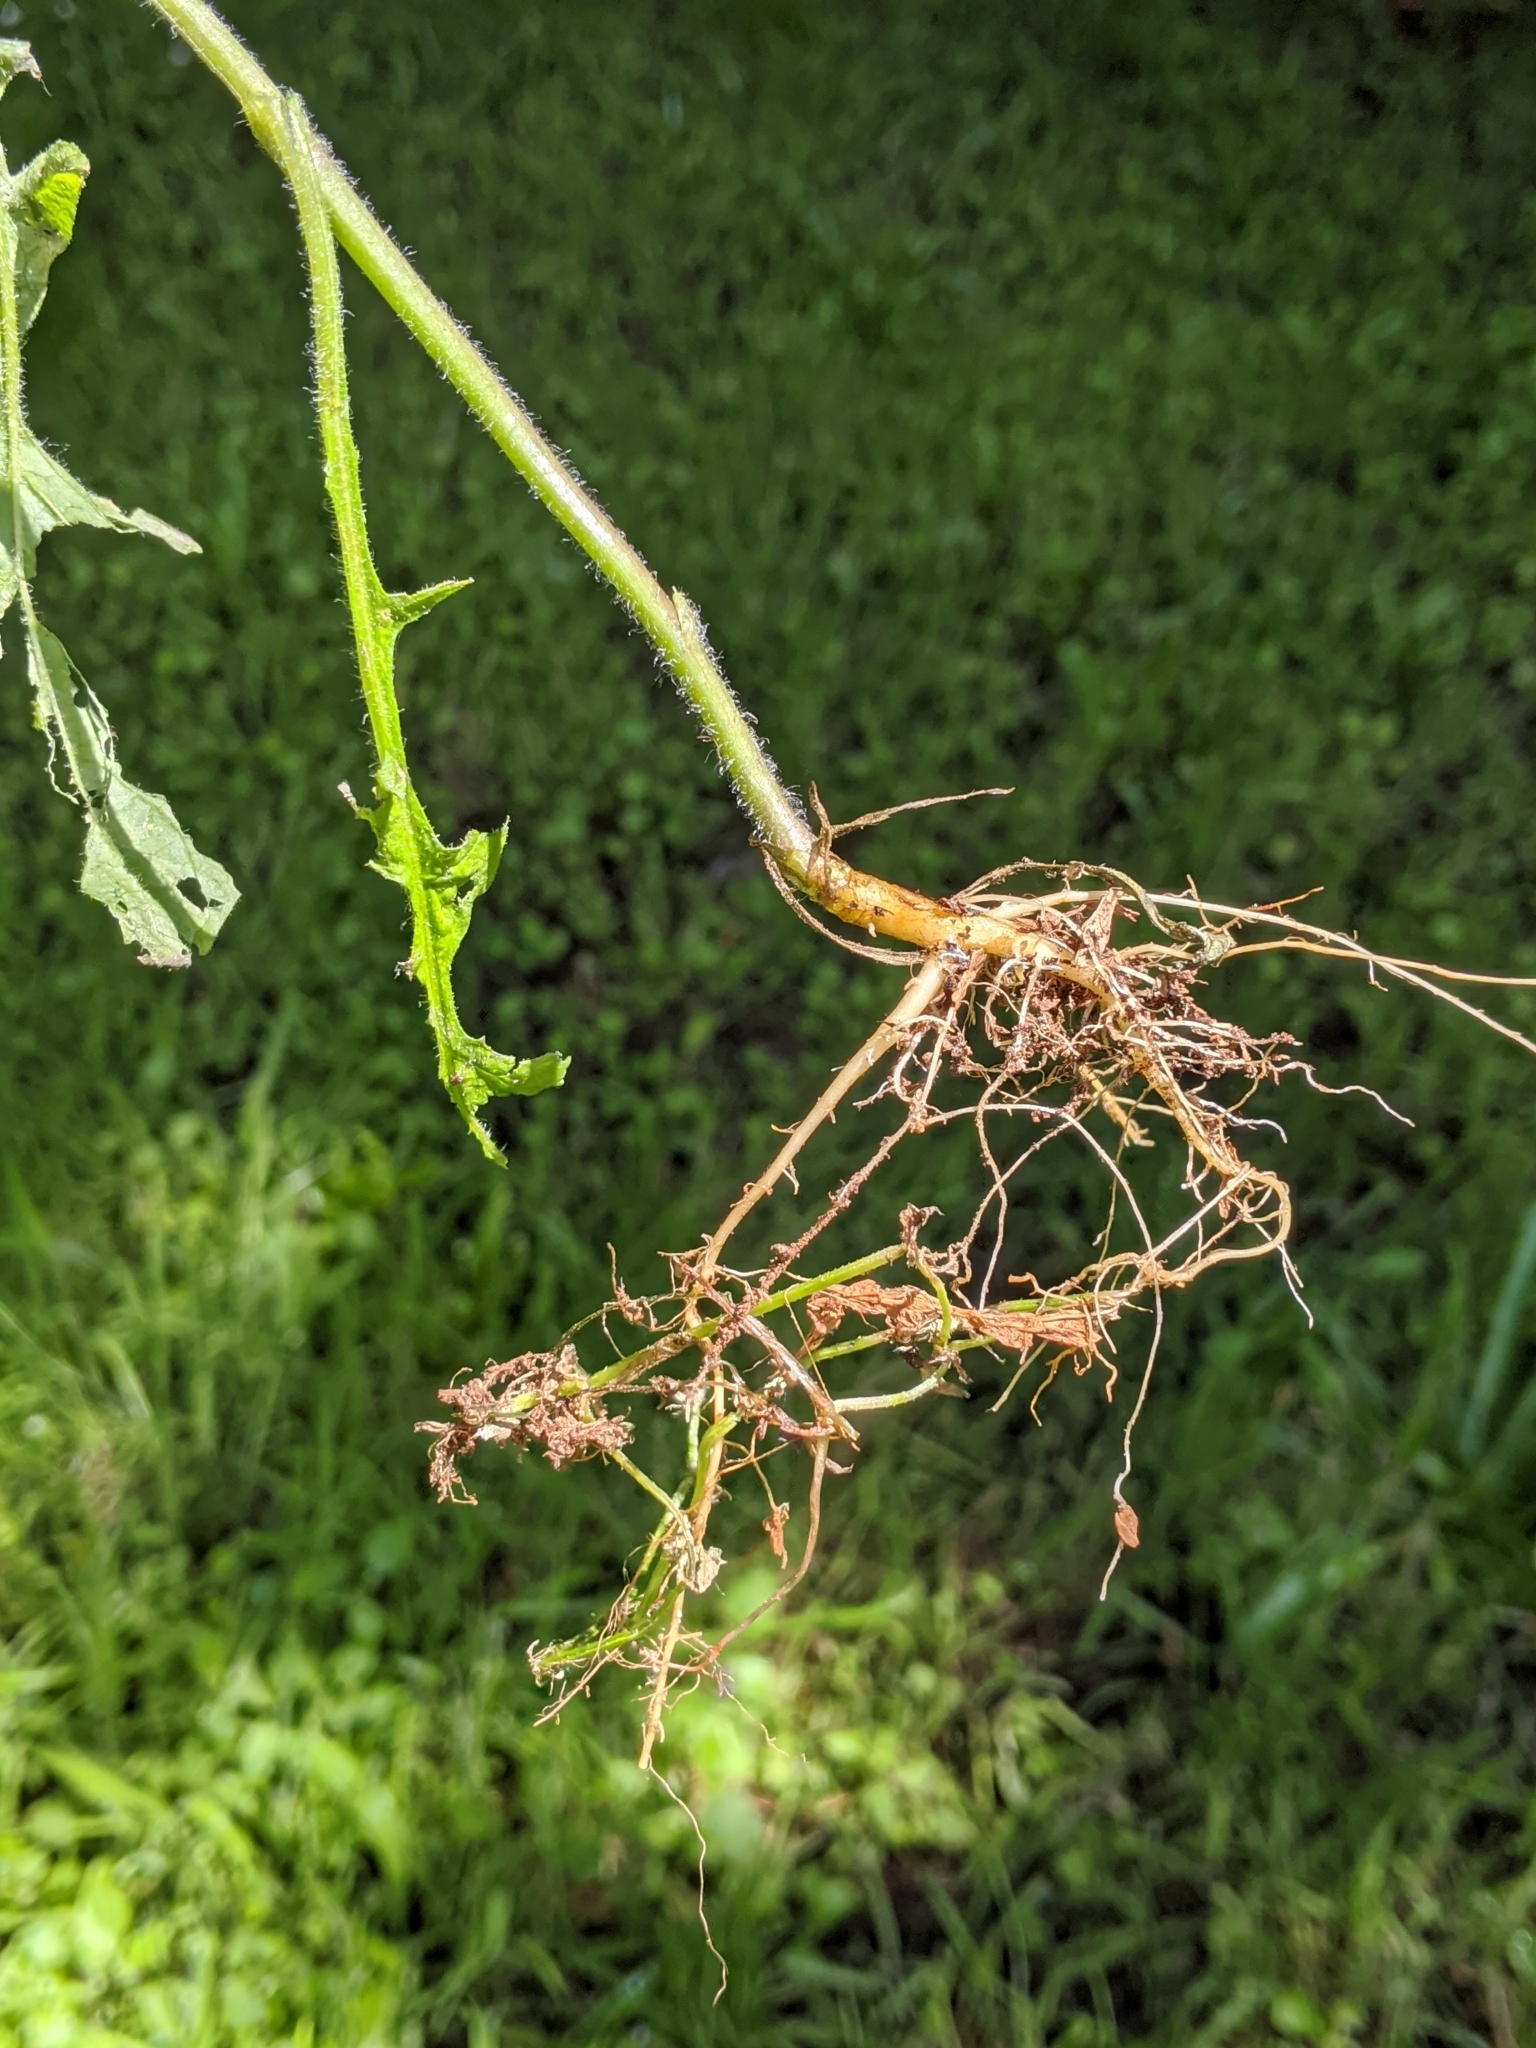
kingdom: Plantae
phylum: Tracheophyta
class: Magnoliopsida
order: Asterales
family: Asteraceae
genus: Lapsana
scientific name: Lapsana communis
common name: Nipplewort
